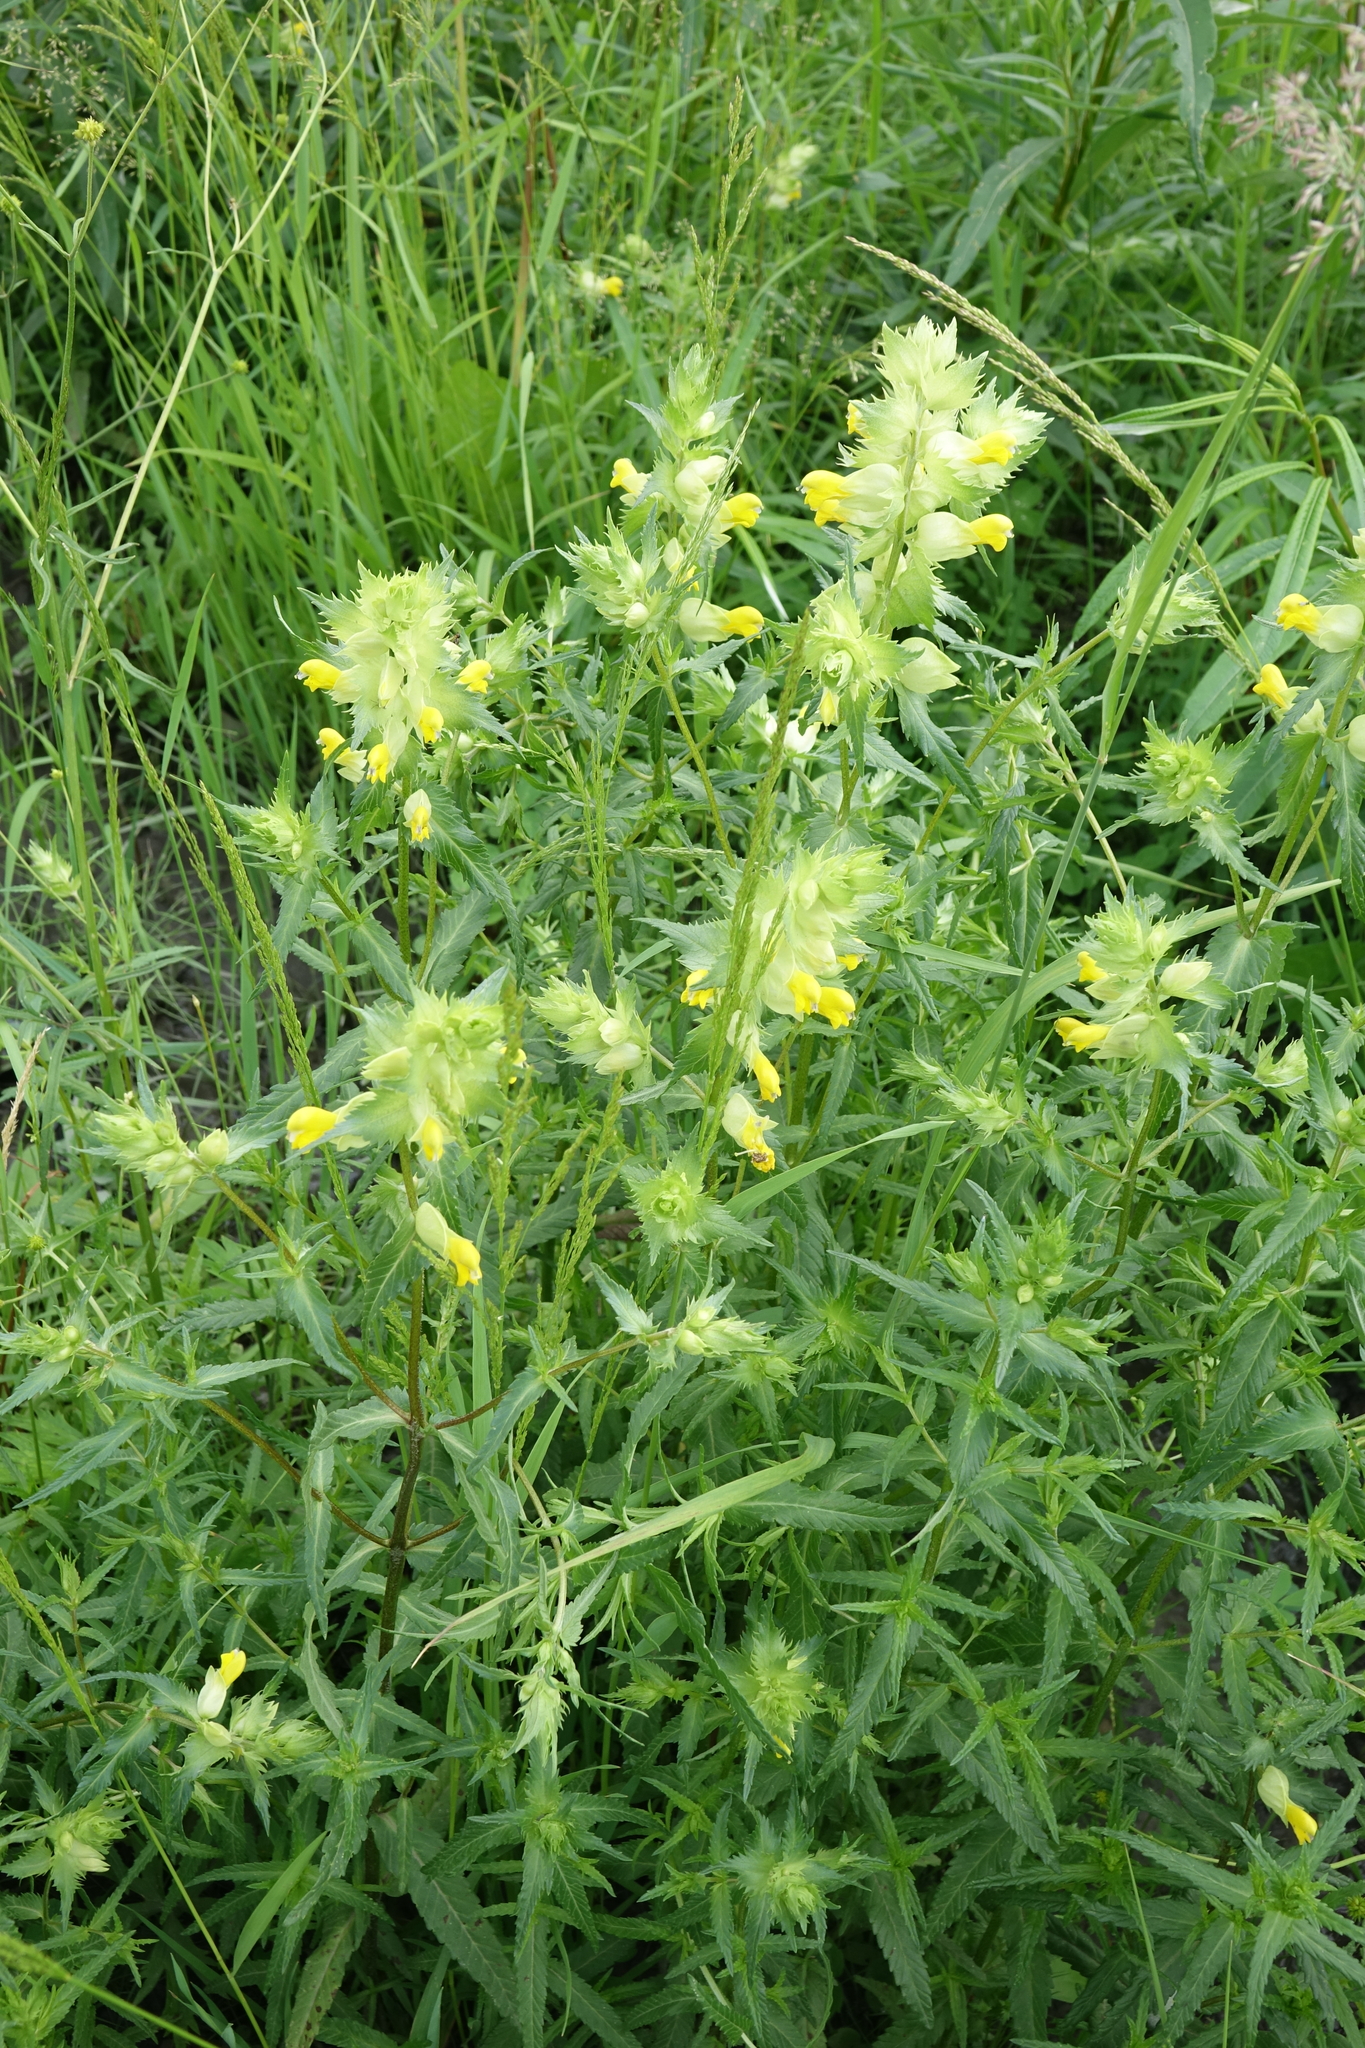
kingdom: Plantae
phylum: Tracheophyta
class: Magnoliopsida
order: Lamiales
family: Orobanchaceae
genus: Rhinanthus
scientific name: Rhinanthus serotinus
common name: Late-flowering yellow rattle
